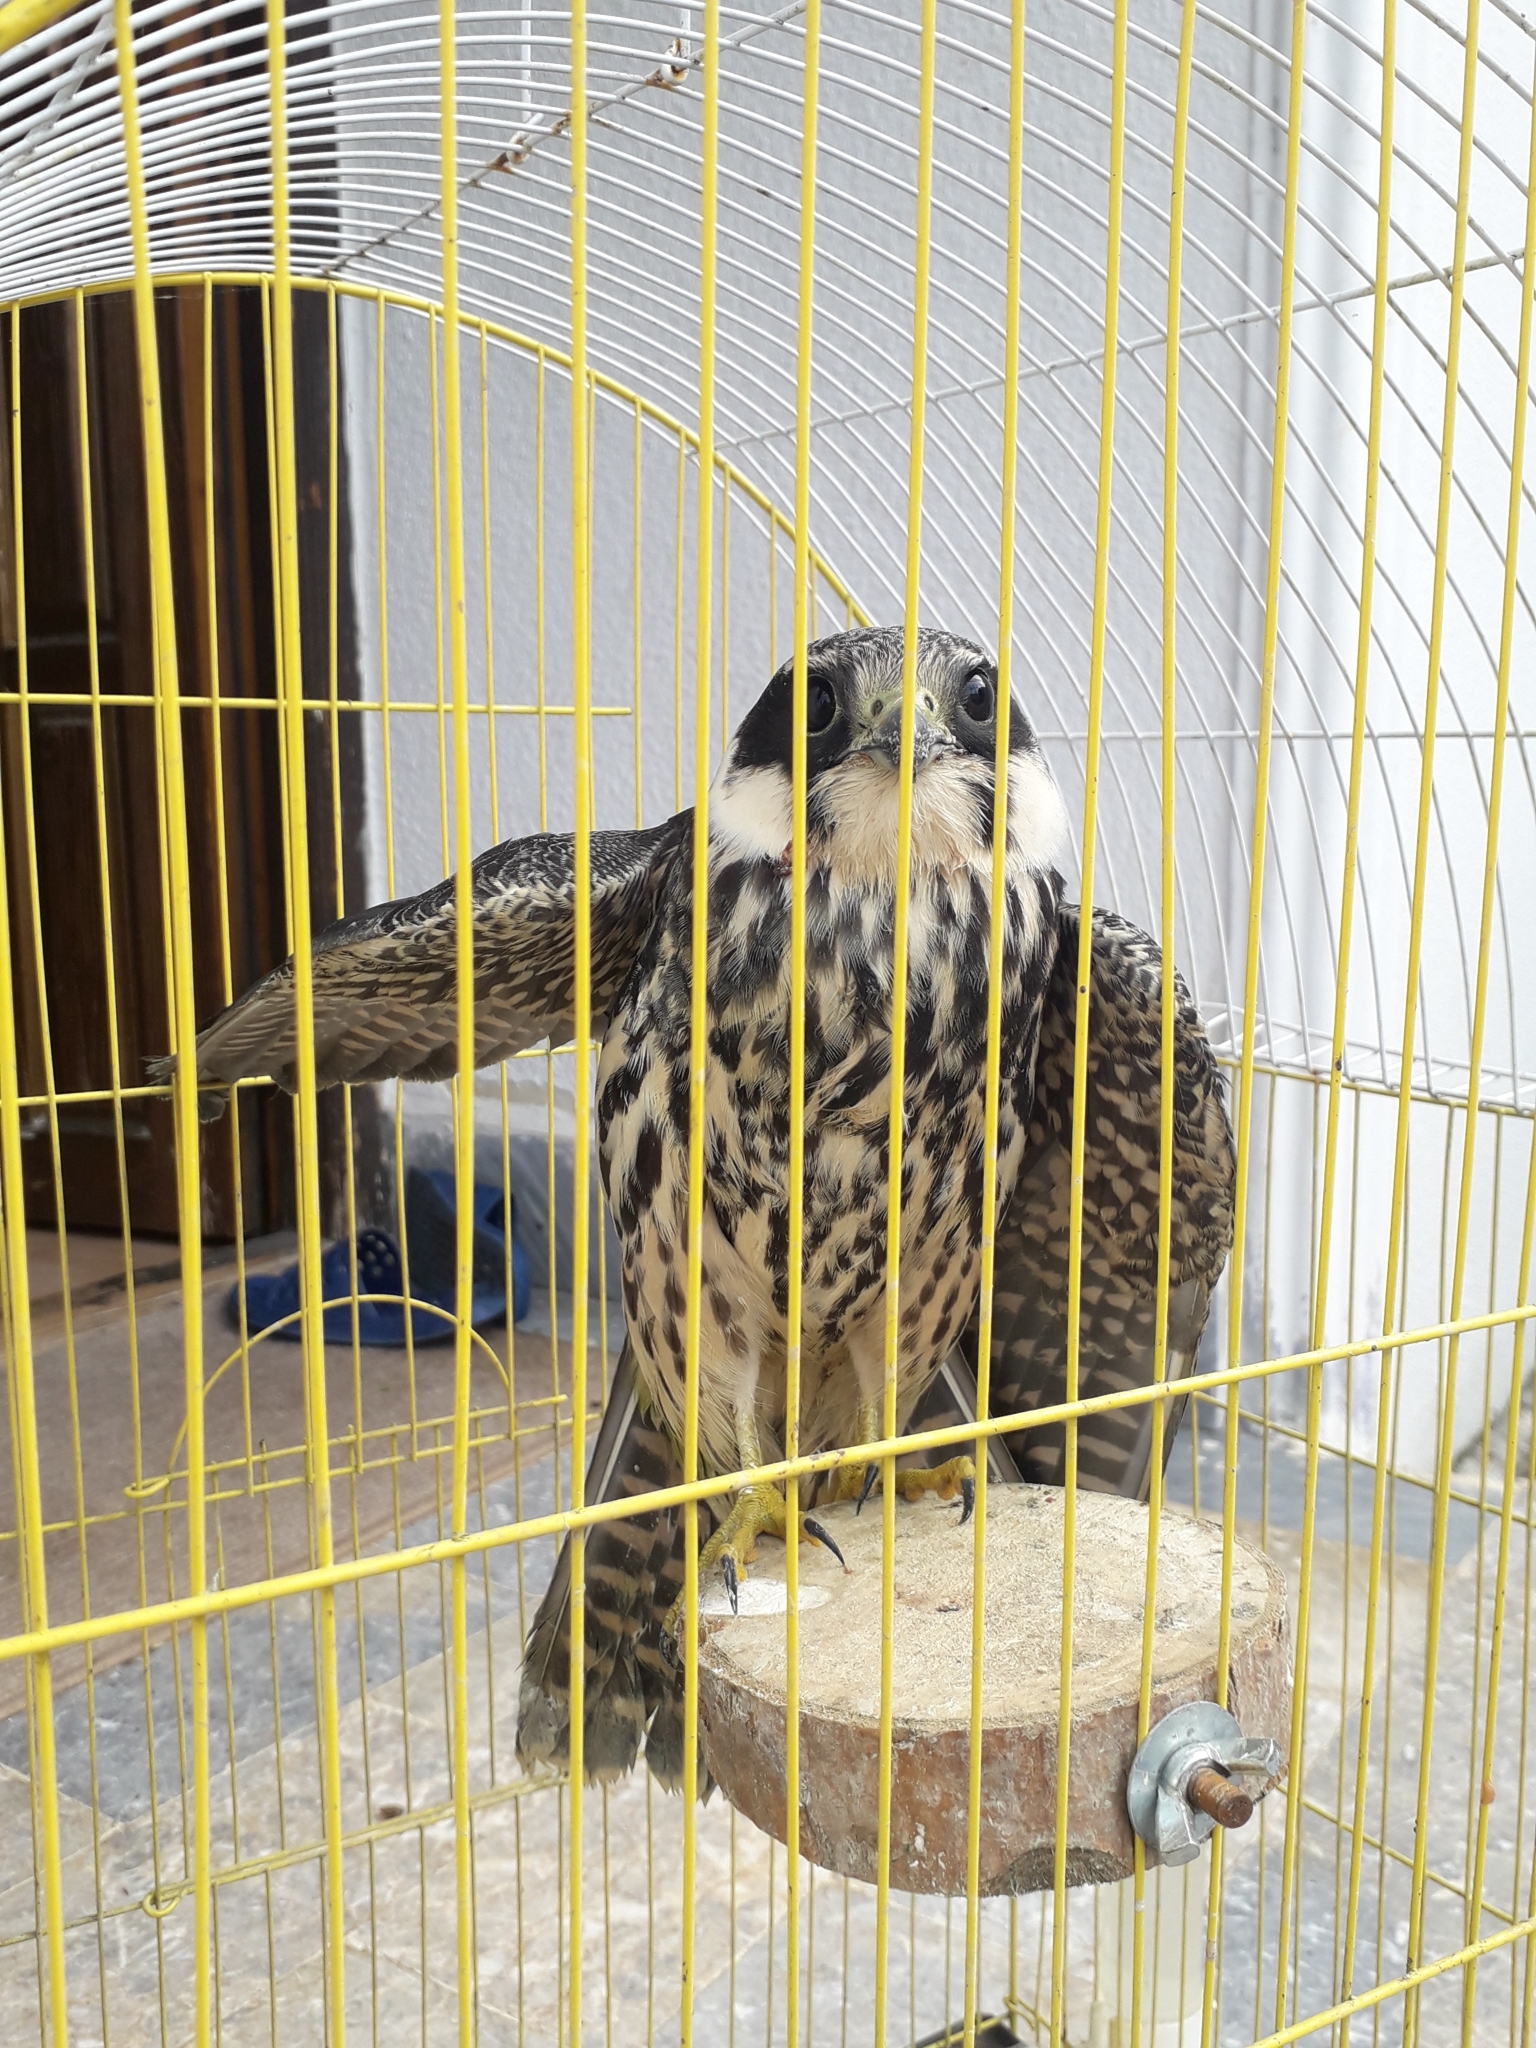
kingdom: Animalia
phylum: Chordata
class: Aves
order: Falconiformes
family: Falconidae
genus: Falco
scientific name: Falco subbuteo
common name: Eurasian hobby
